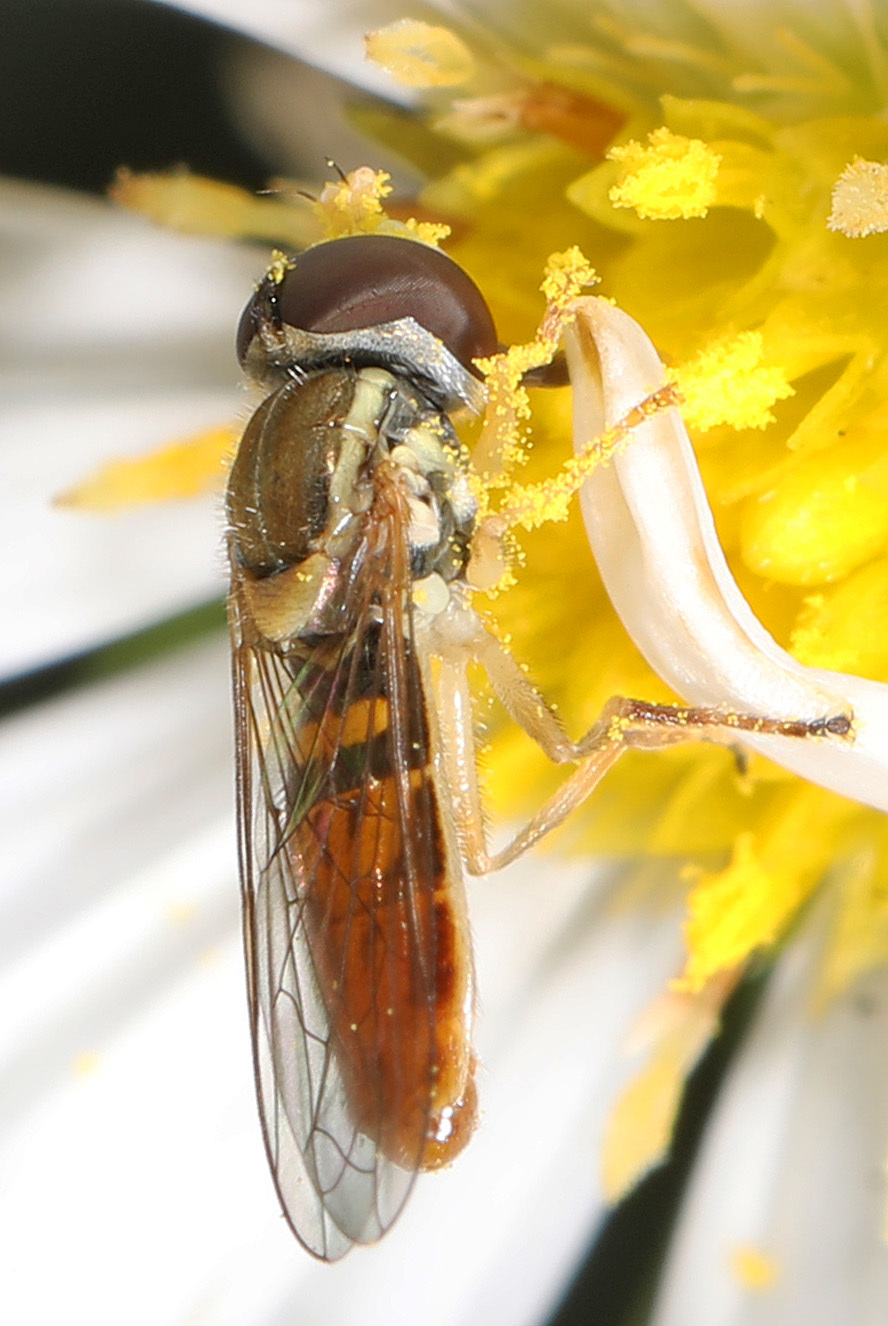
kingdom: Animalia
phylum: Arthropoda
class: Insecta
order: Diptera
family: Syrphidae
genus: Toxomerus
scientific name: Toxomerus marginatus
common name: Syrphid fly
